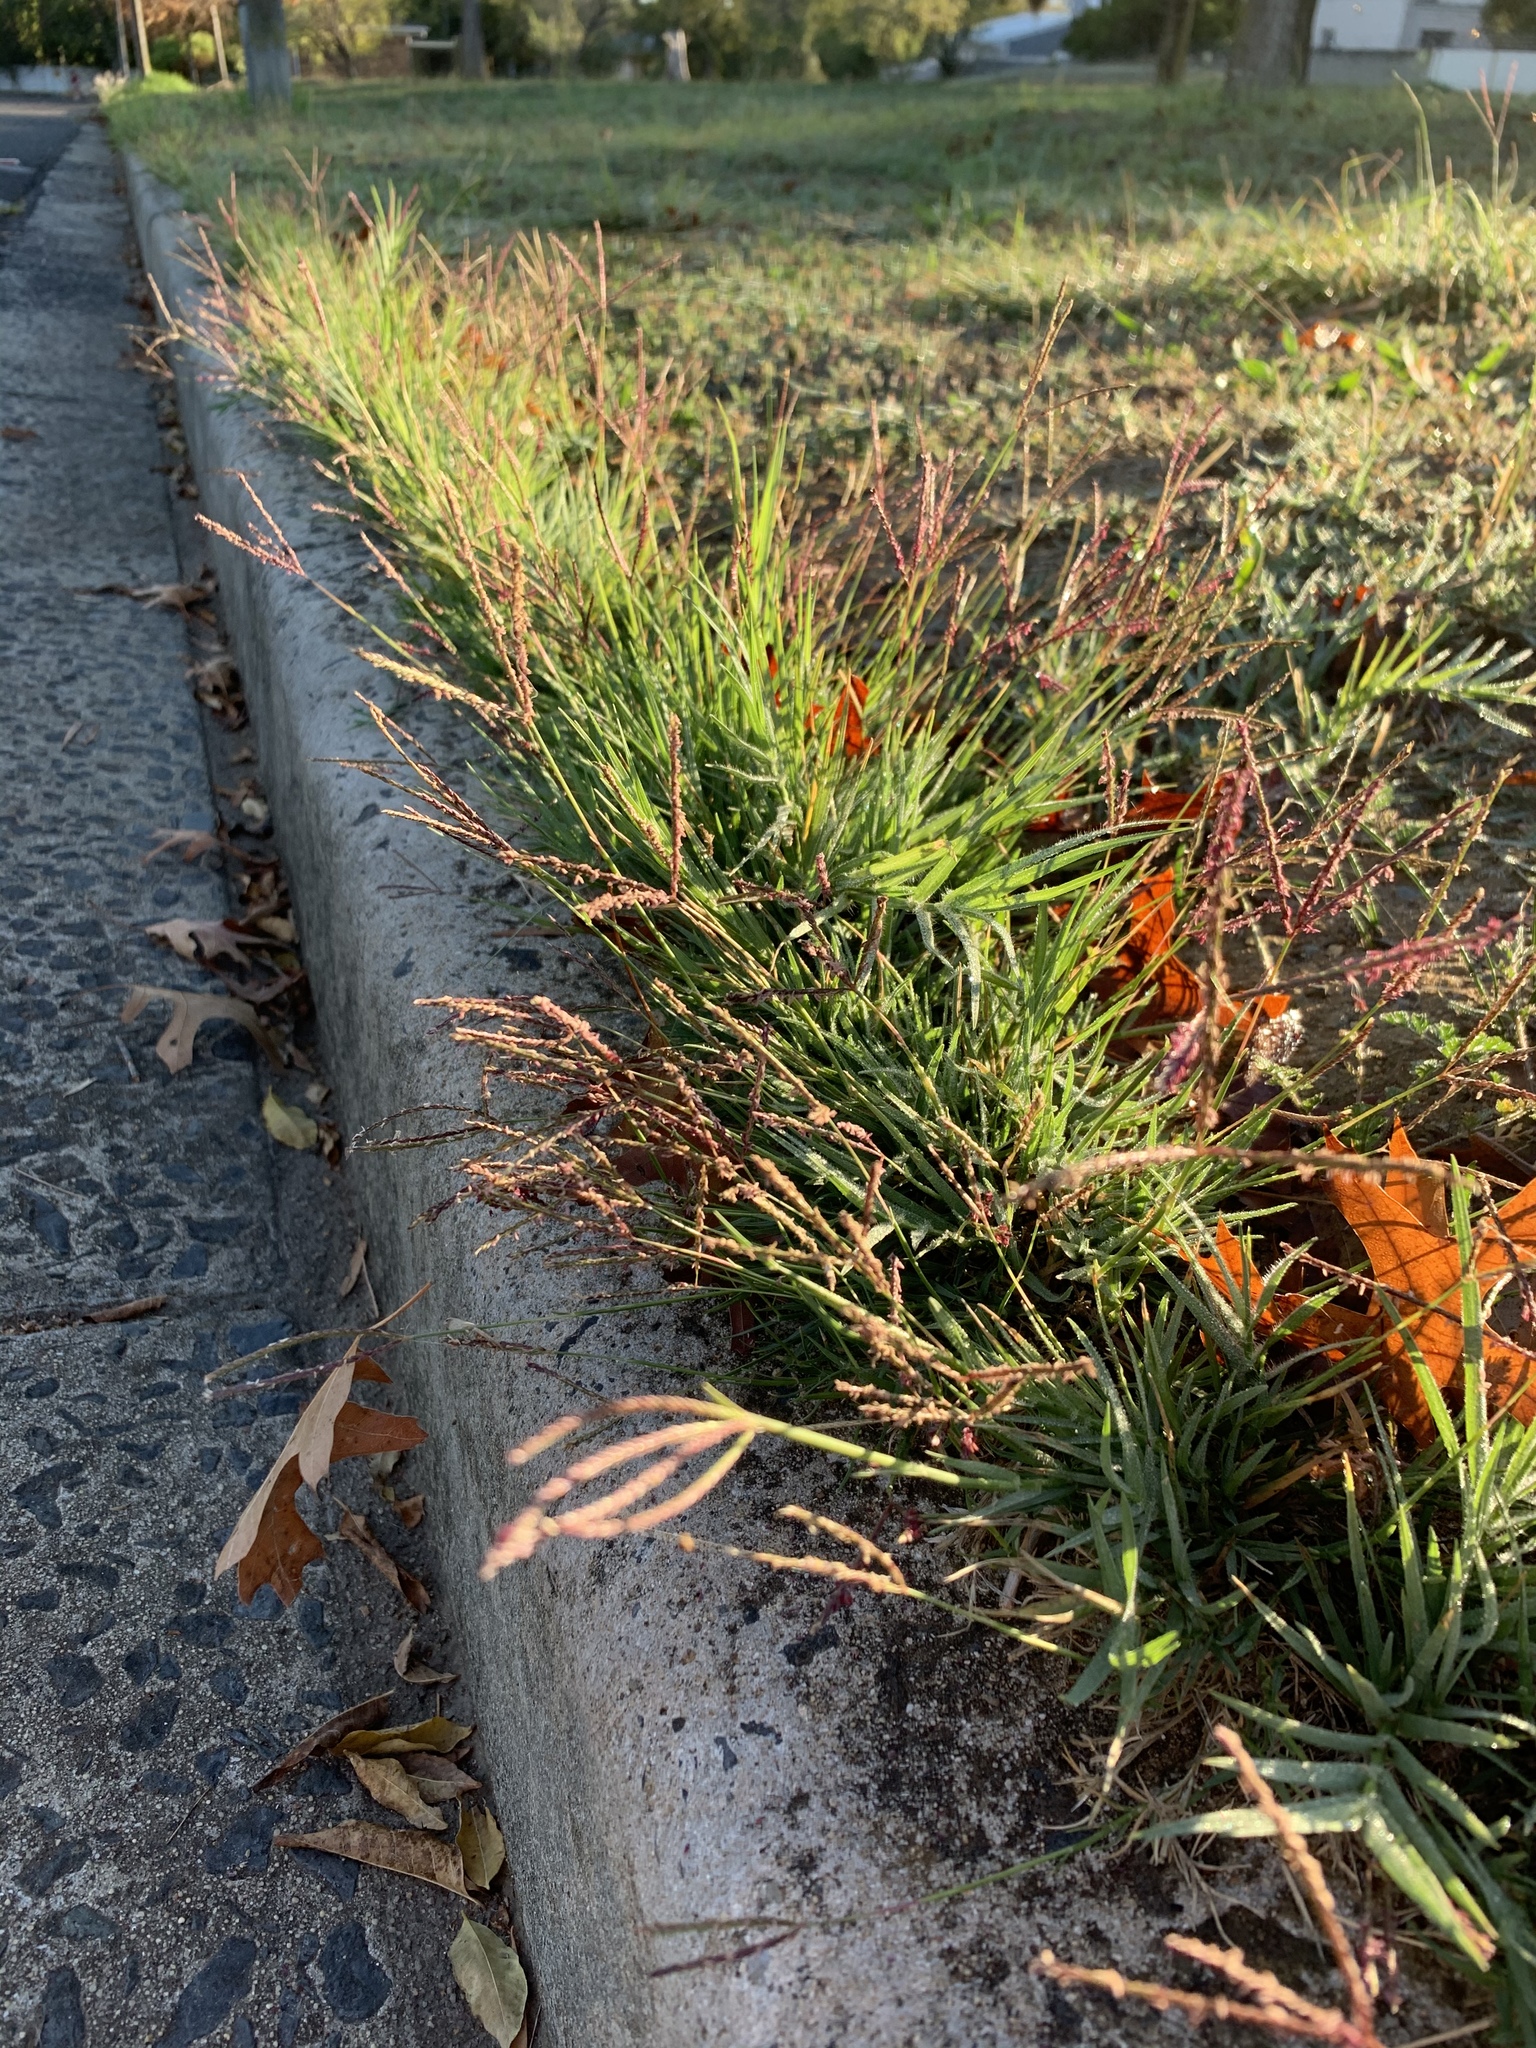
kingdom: Plantae
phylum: Tracheophyta
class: Liliopsida
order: Poales
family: Poaceae
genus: Cynodon
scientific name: Cynodon dactylon
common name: Bermuda grass
